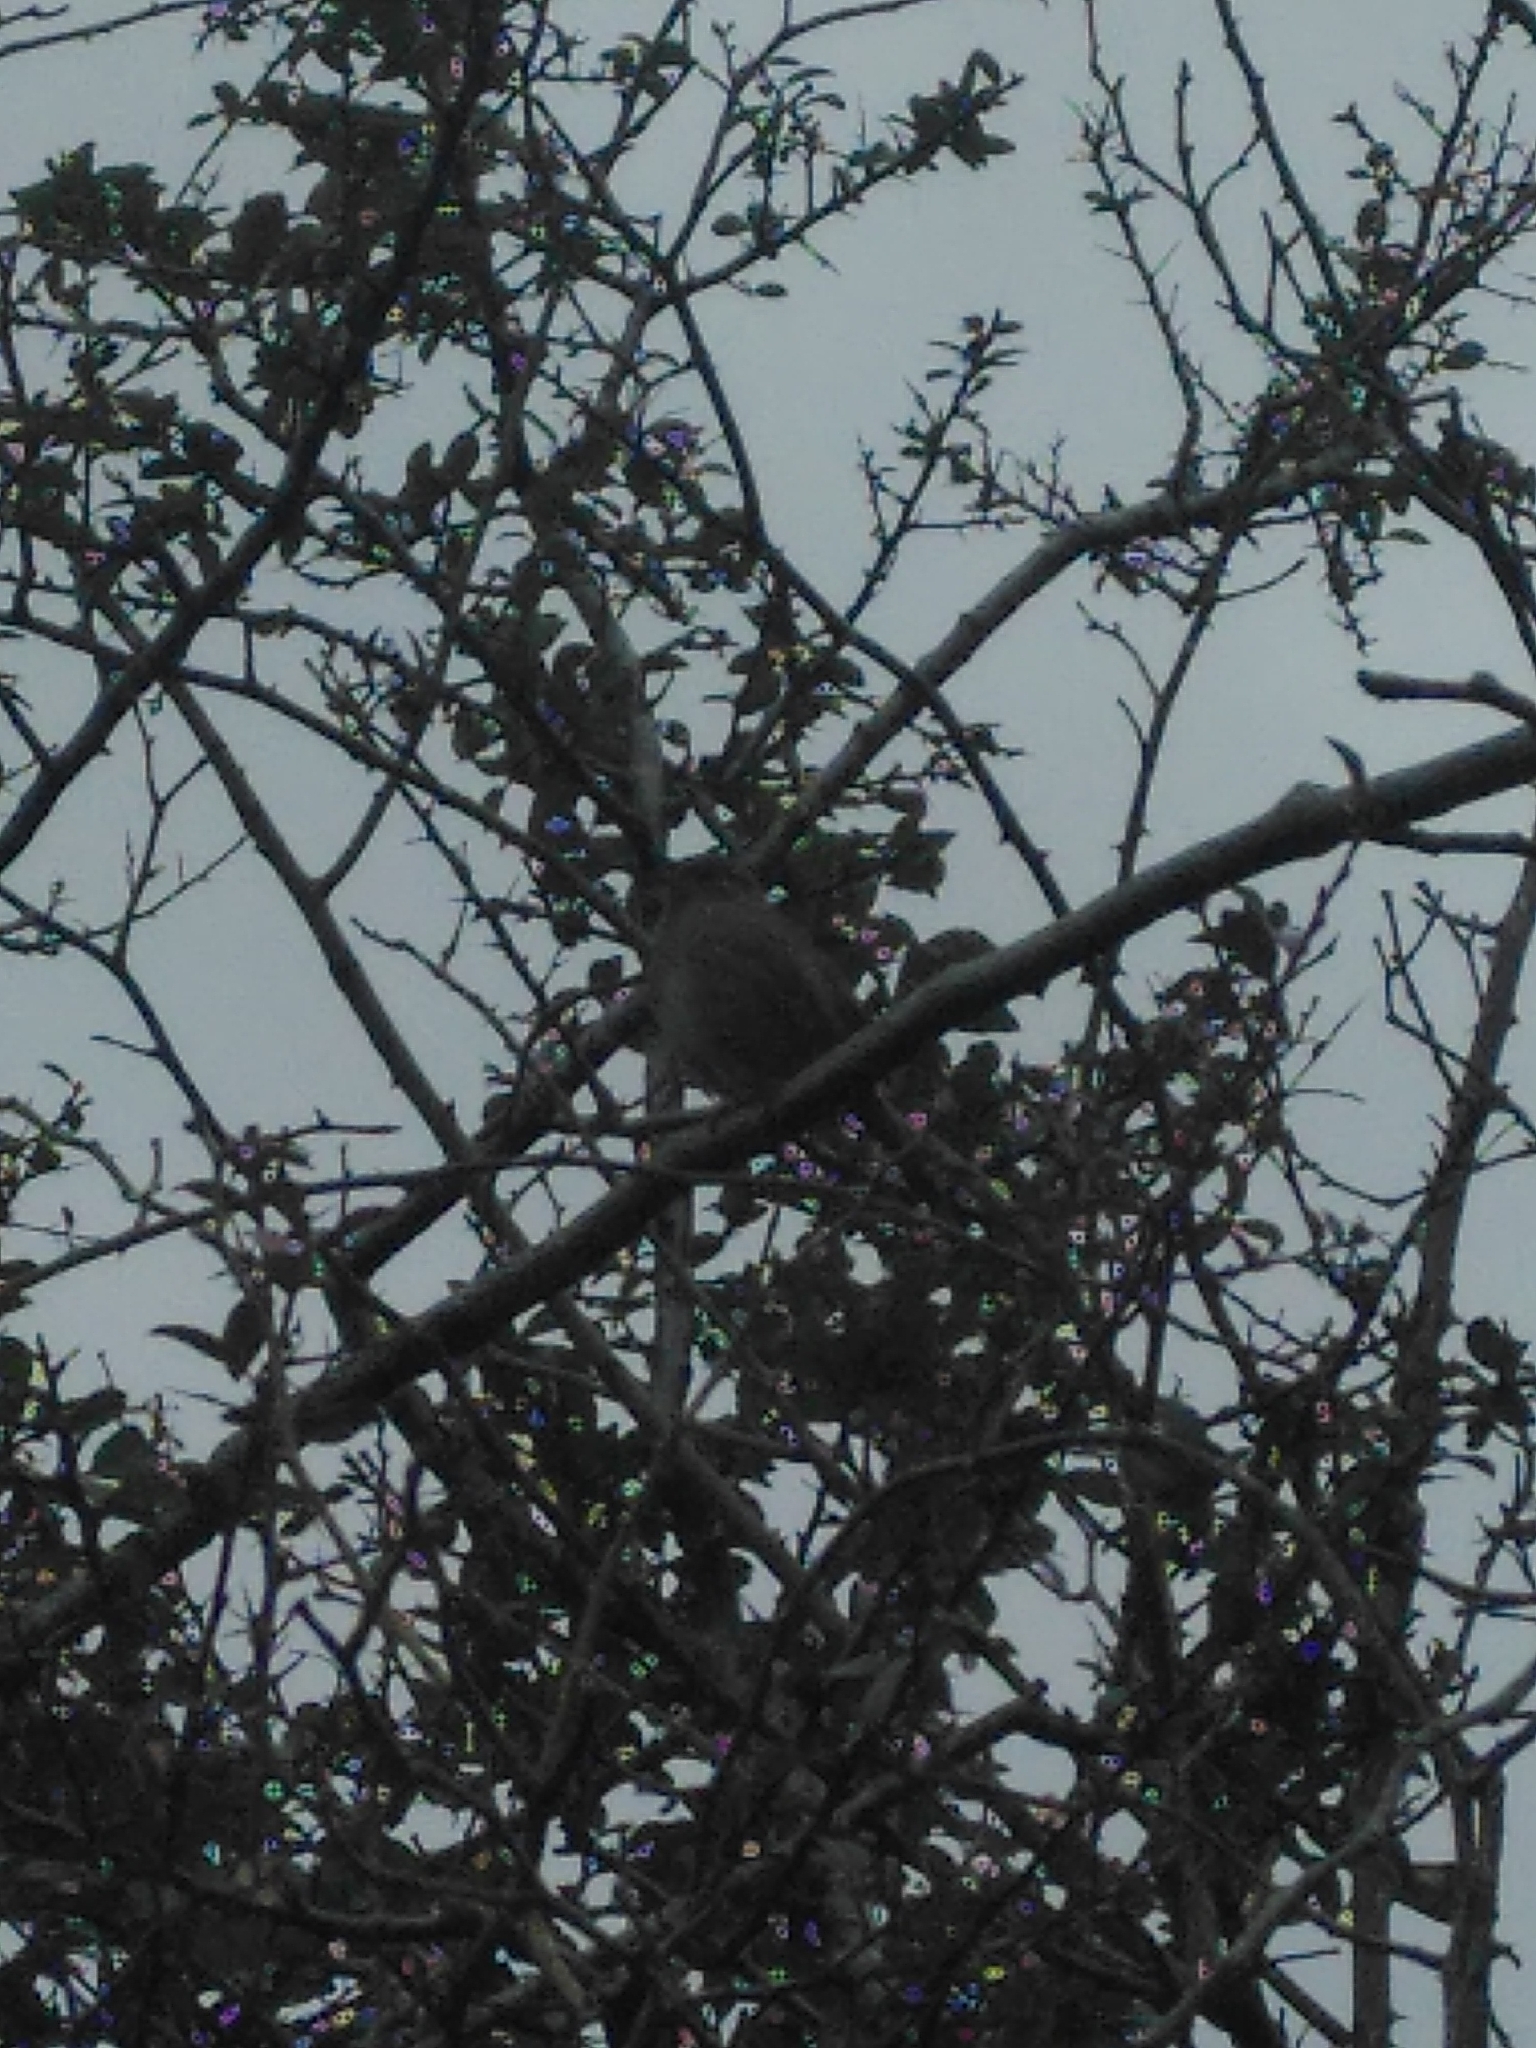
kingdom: Animalia
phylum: Chordata
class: Aves
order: Passeriformes
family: Prunellidae
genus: Prunella
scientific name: Prunella modularis
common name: Dunnock
